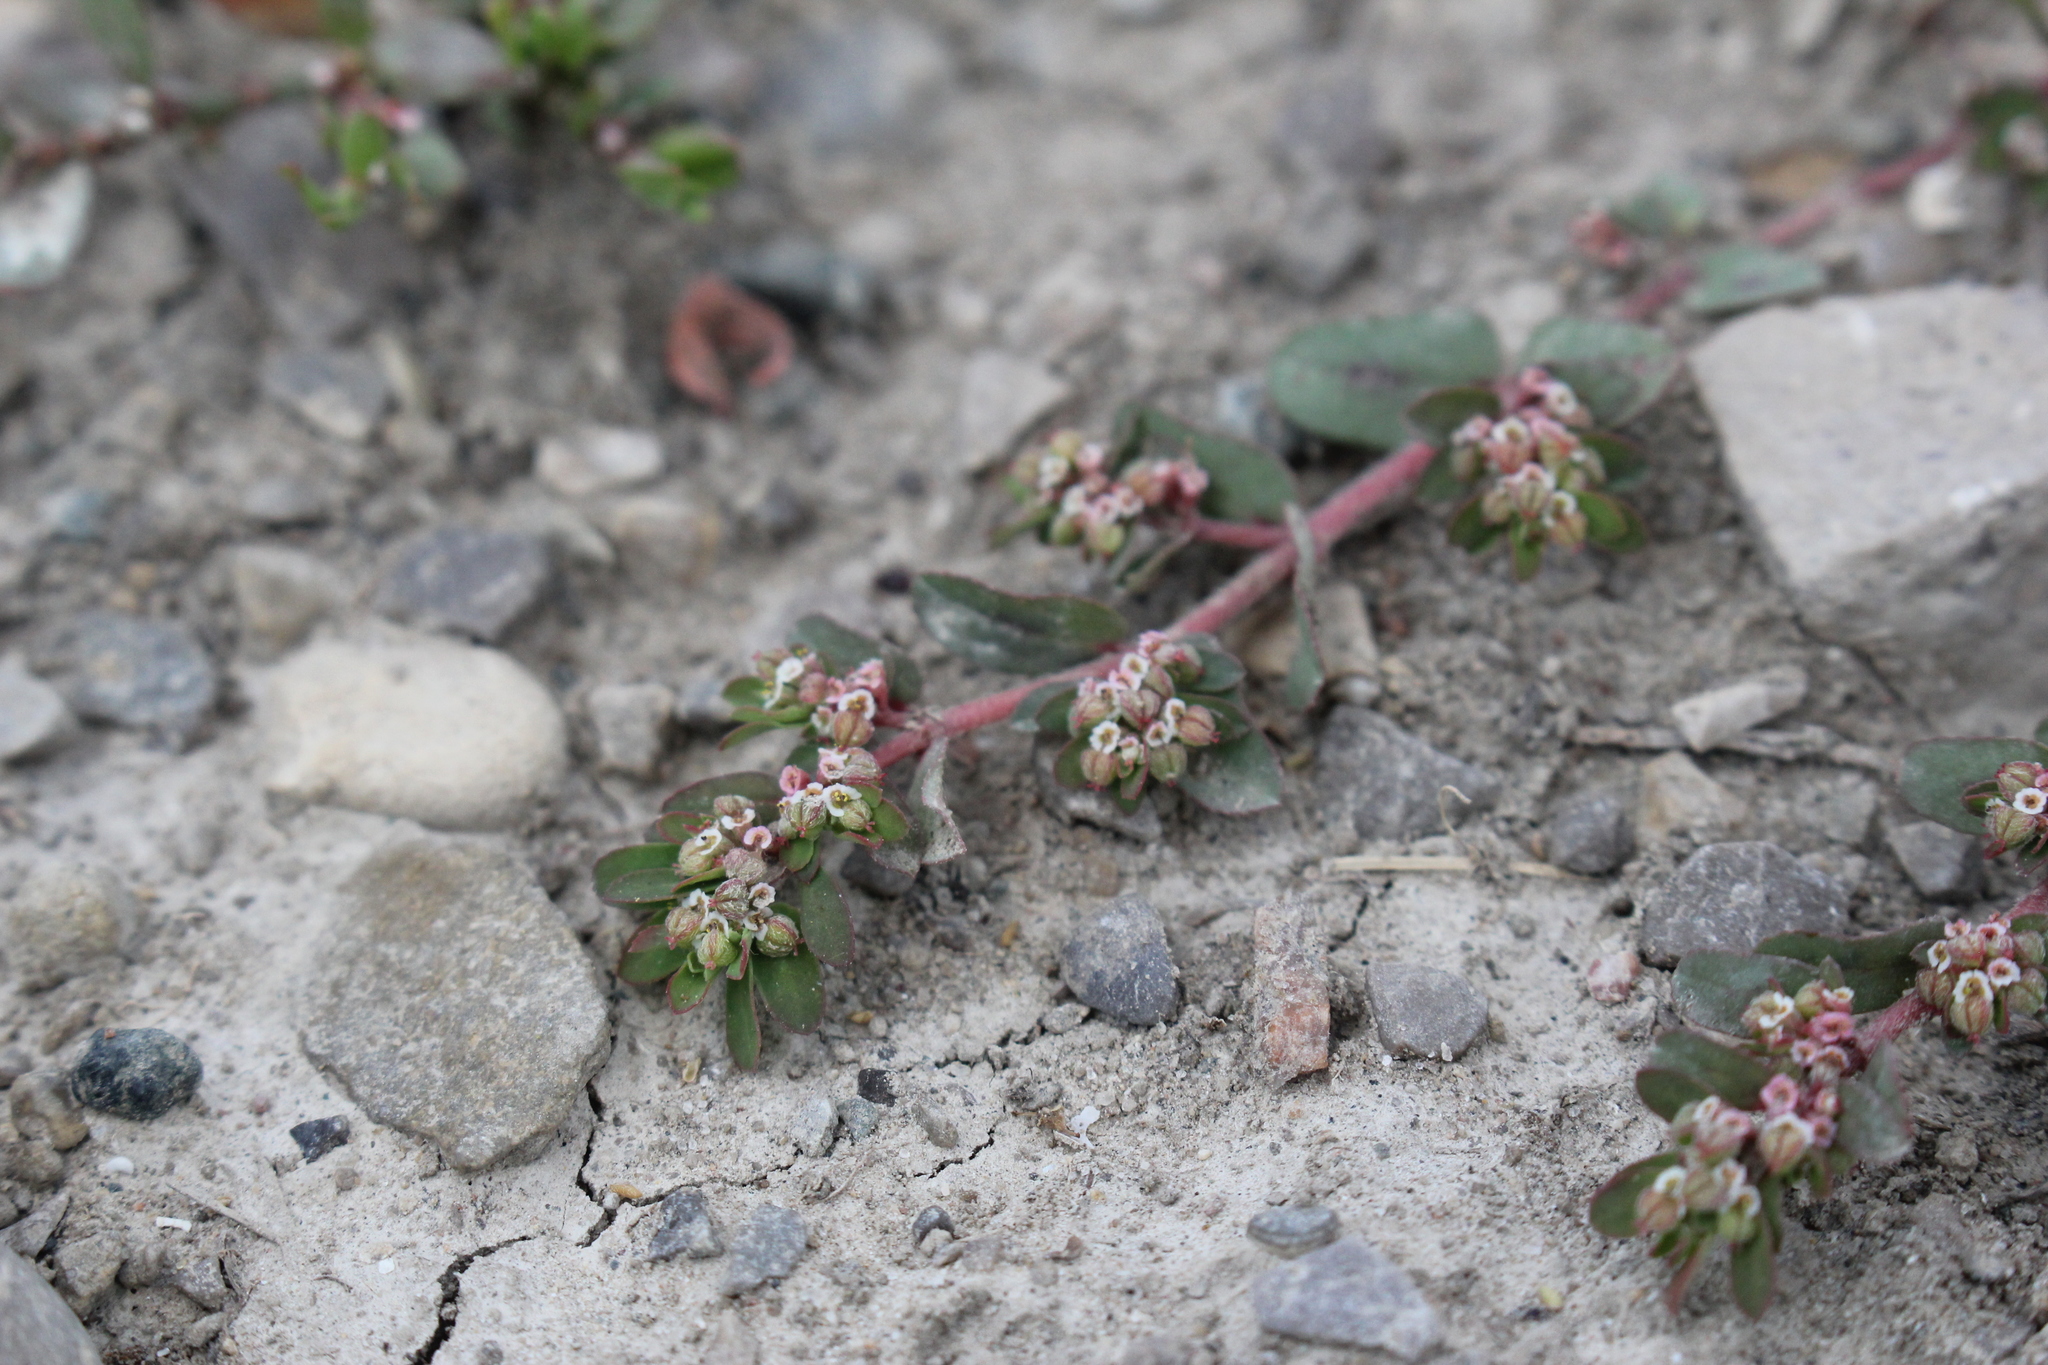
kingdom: Plantae
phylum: Tracheophyta
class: Magnoliopsida
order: Malpighiales
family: Euphorbiaceae
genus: Euphorbia
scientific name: Euphorbia maculata
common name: Spotted spurge
